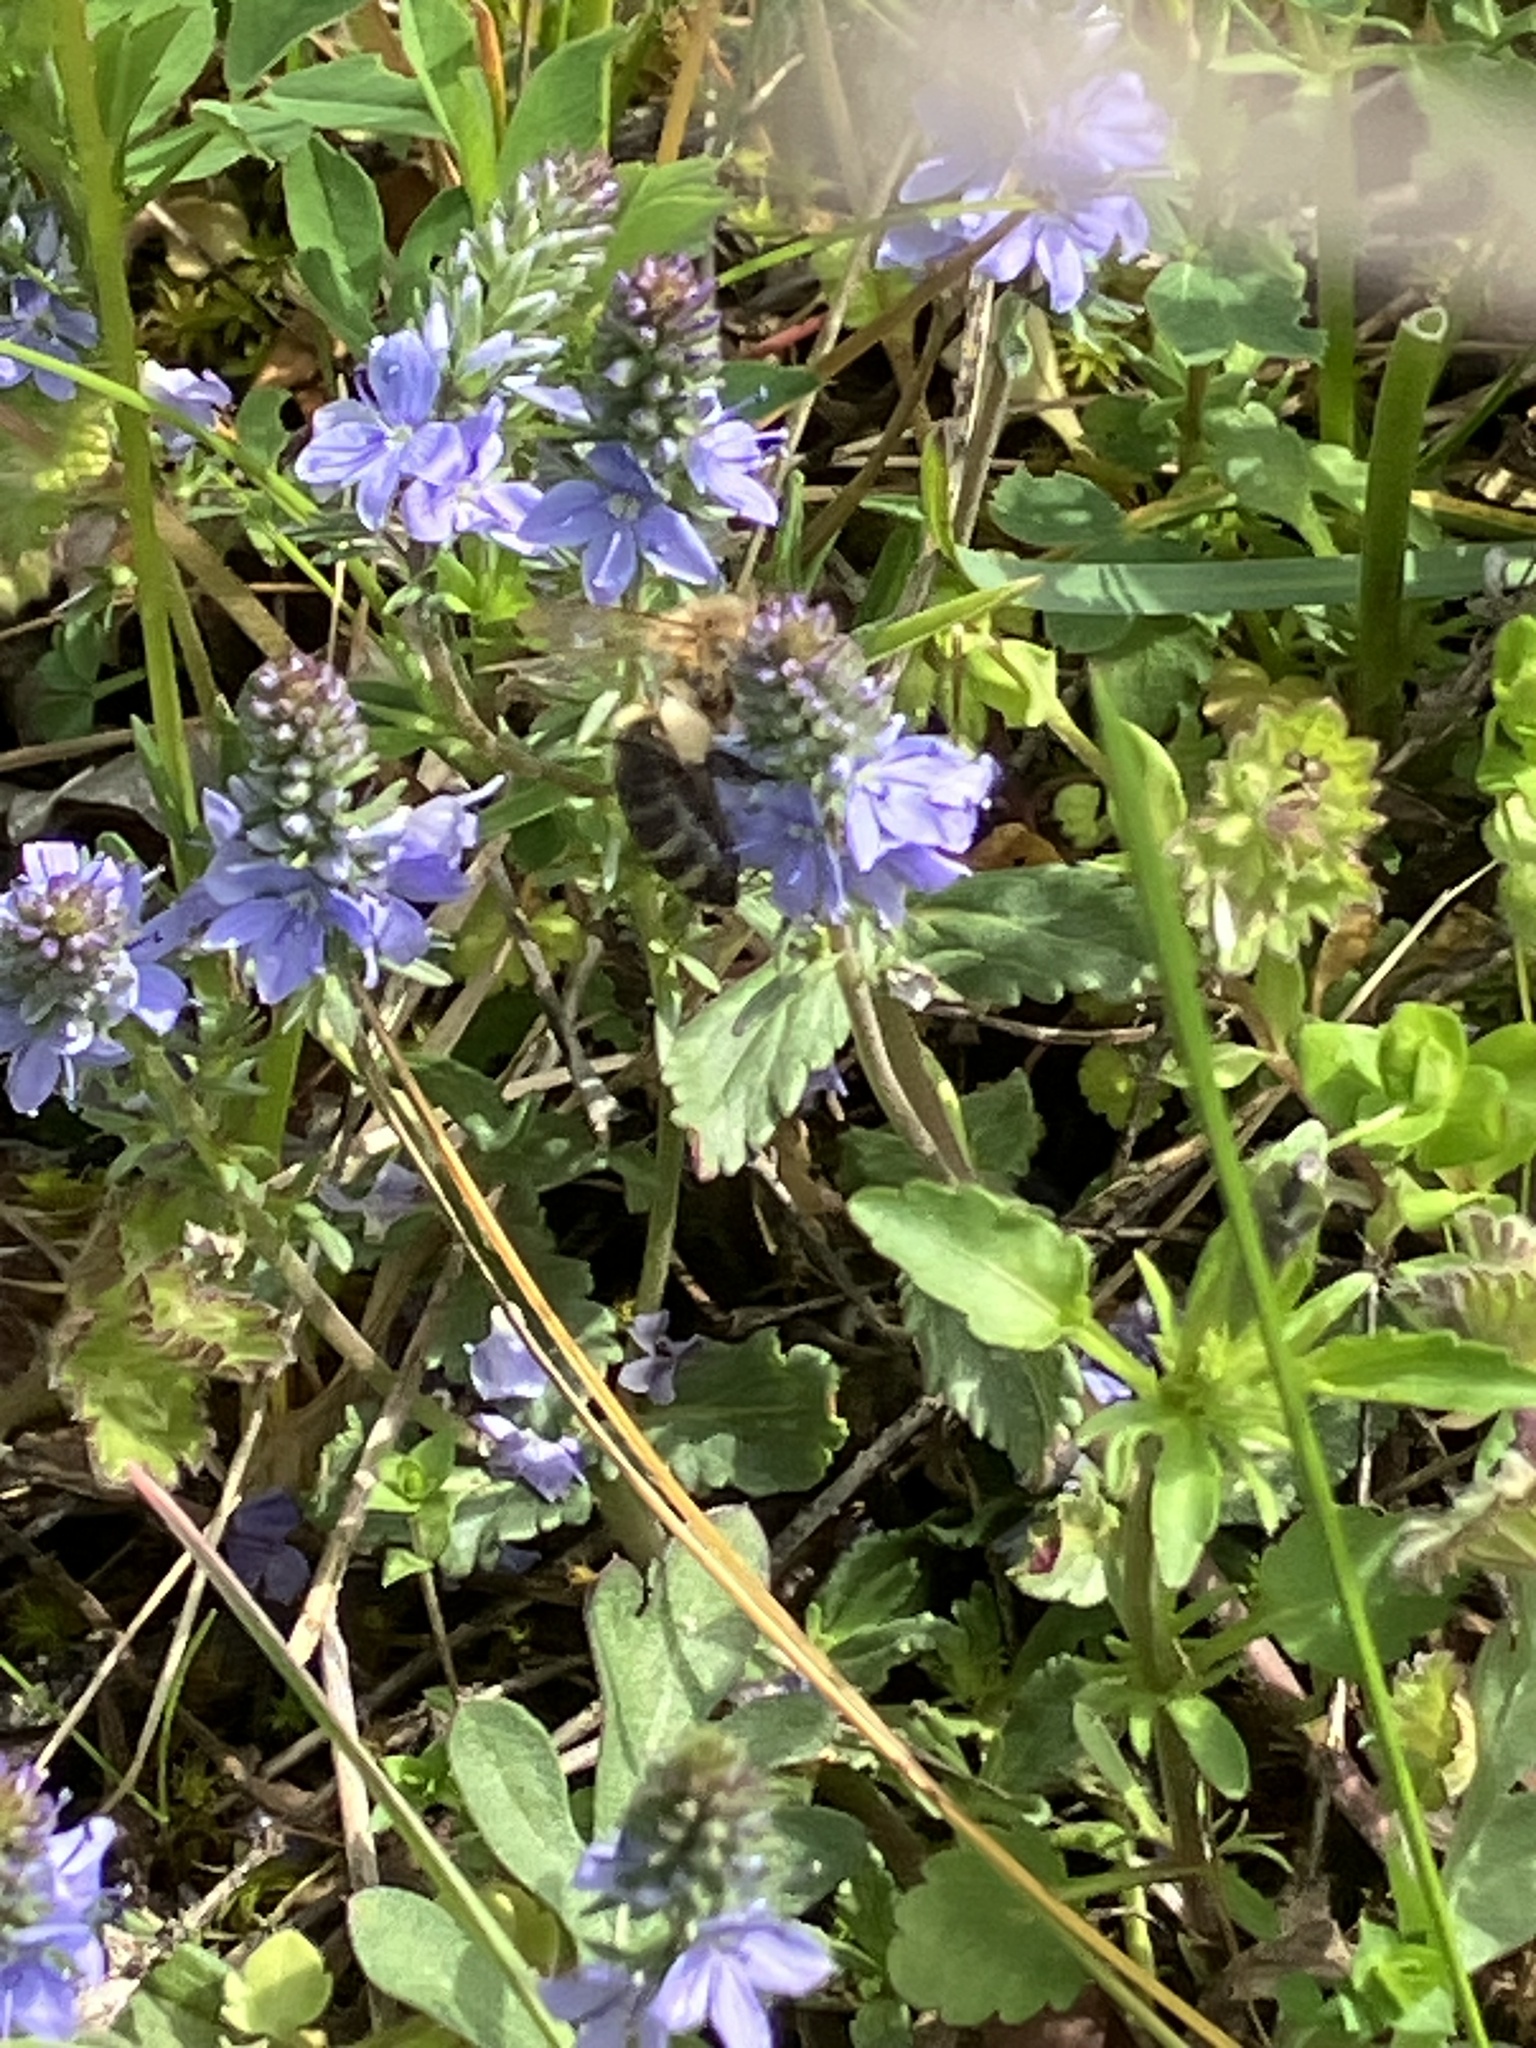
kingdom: Animalia
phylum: Arthropoda
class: Insecta
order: Hymenoptera
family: Apidae
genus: Apis
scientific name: Apis mellifera
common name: Honey bee
